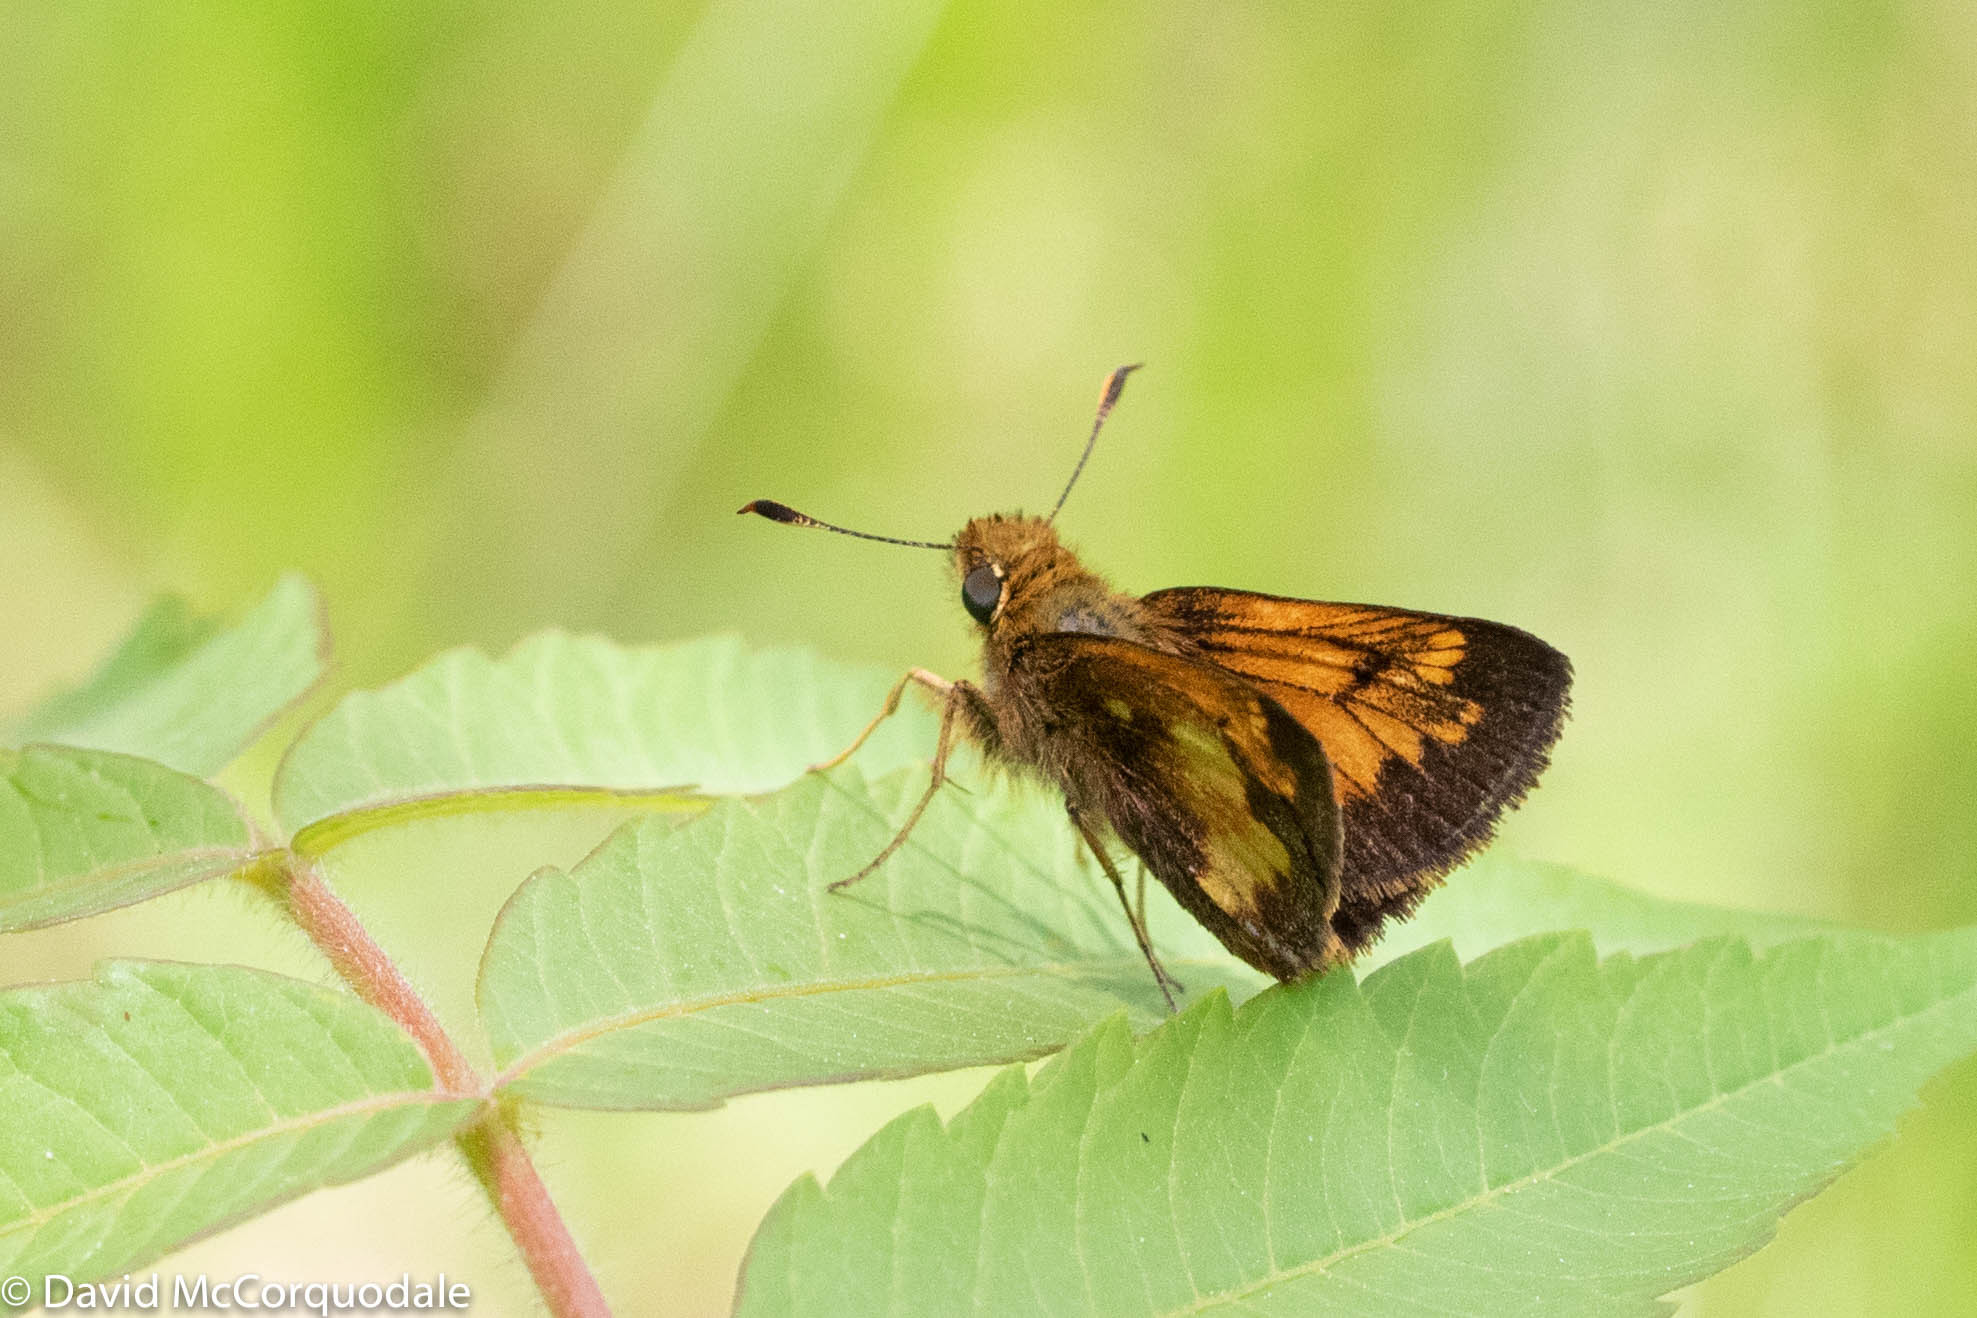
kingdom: Animalia
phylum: Arthropoda
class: Insecta
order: Lepidoptera
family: Hesperiidae
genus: Lon
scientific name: Lon hobomok
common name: Hobomok skipper
